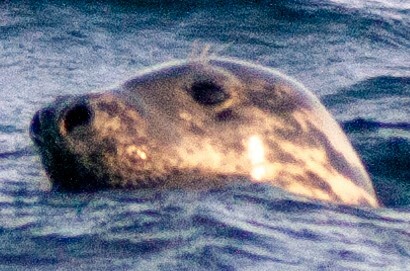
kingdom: Animalia
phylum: Chordata
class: Mammalia
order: Carnivora
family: Phocidae
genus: Halichoerus
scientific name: Halichoerus grypus
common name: Grey seal
